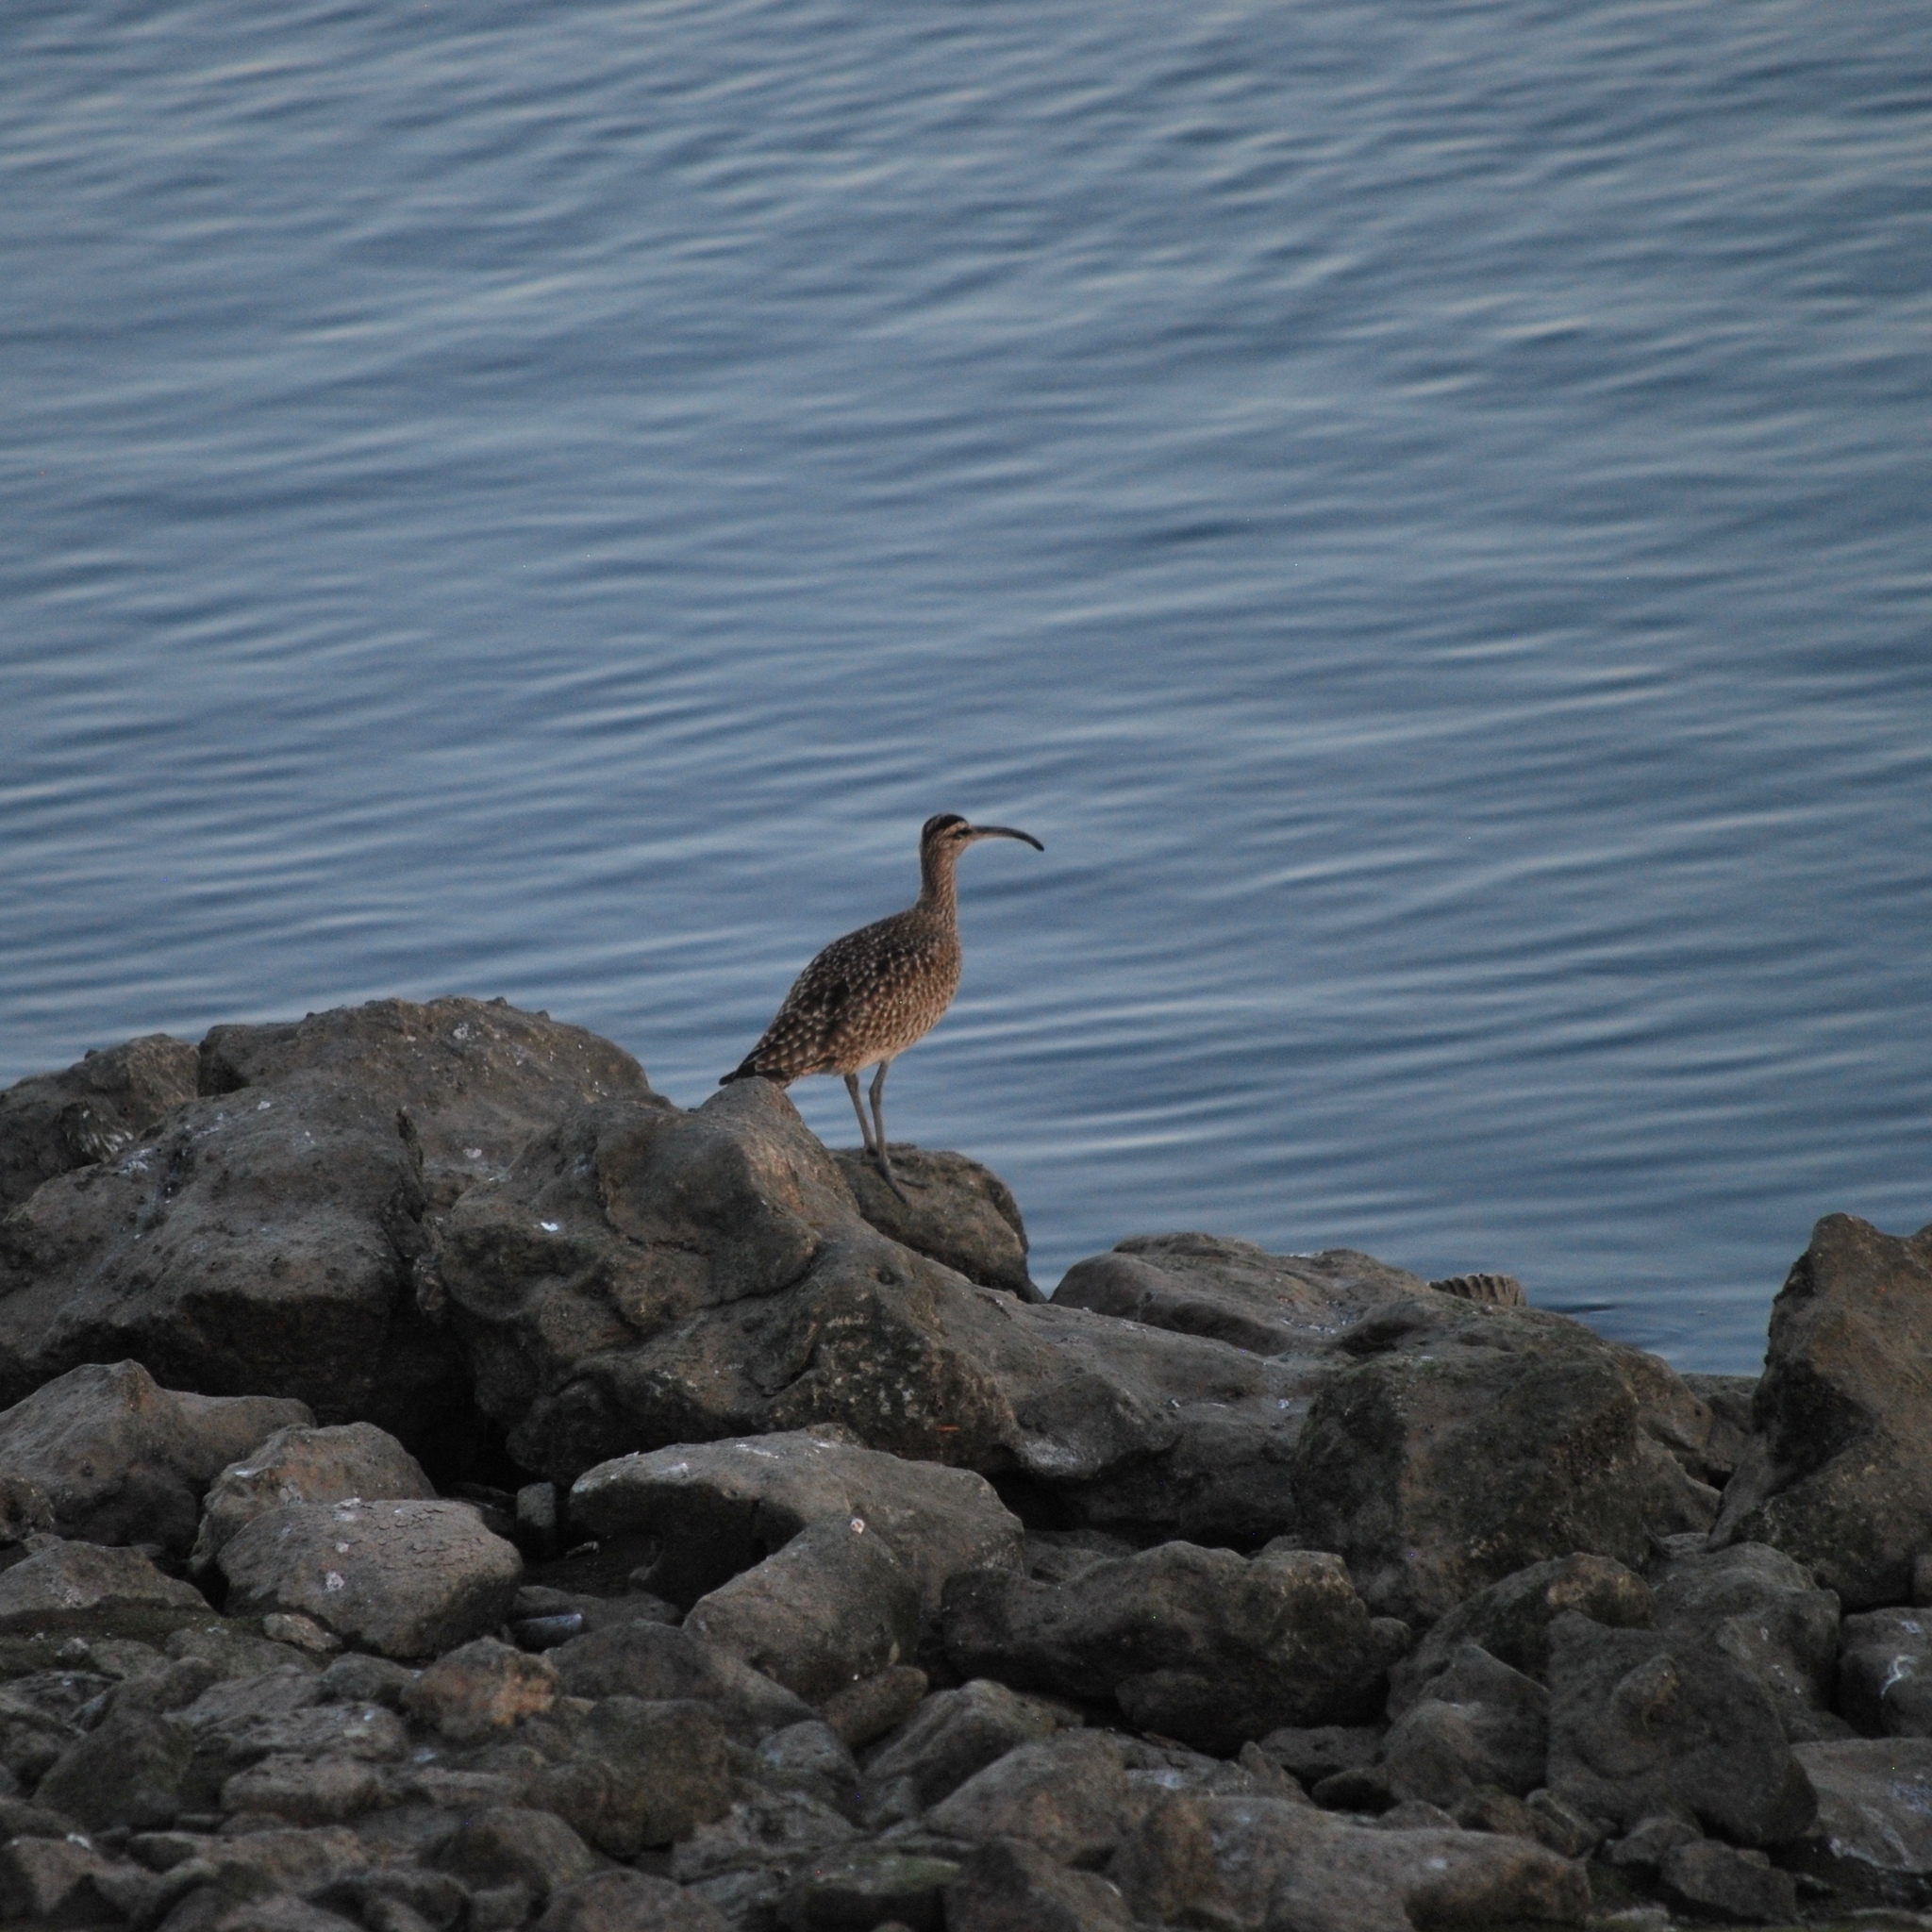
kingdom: Animalia
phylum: Chordata
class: Aves
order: Charadriiformes
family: Scolopacidae
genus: Numenius
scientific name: Numenius phaeopus
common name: Whimbrel
